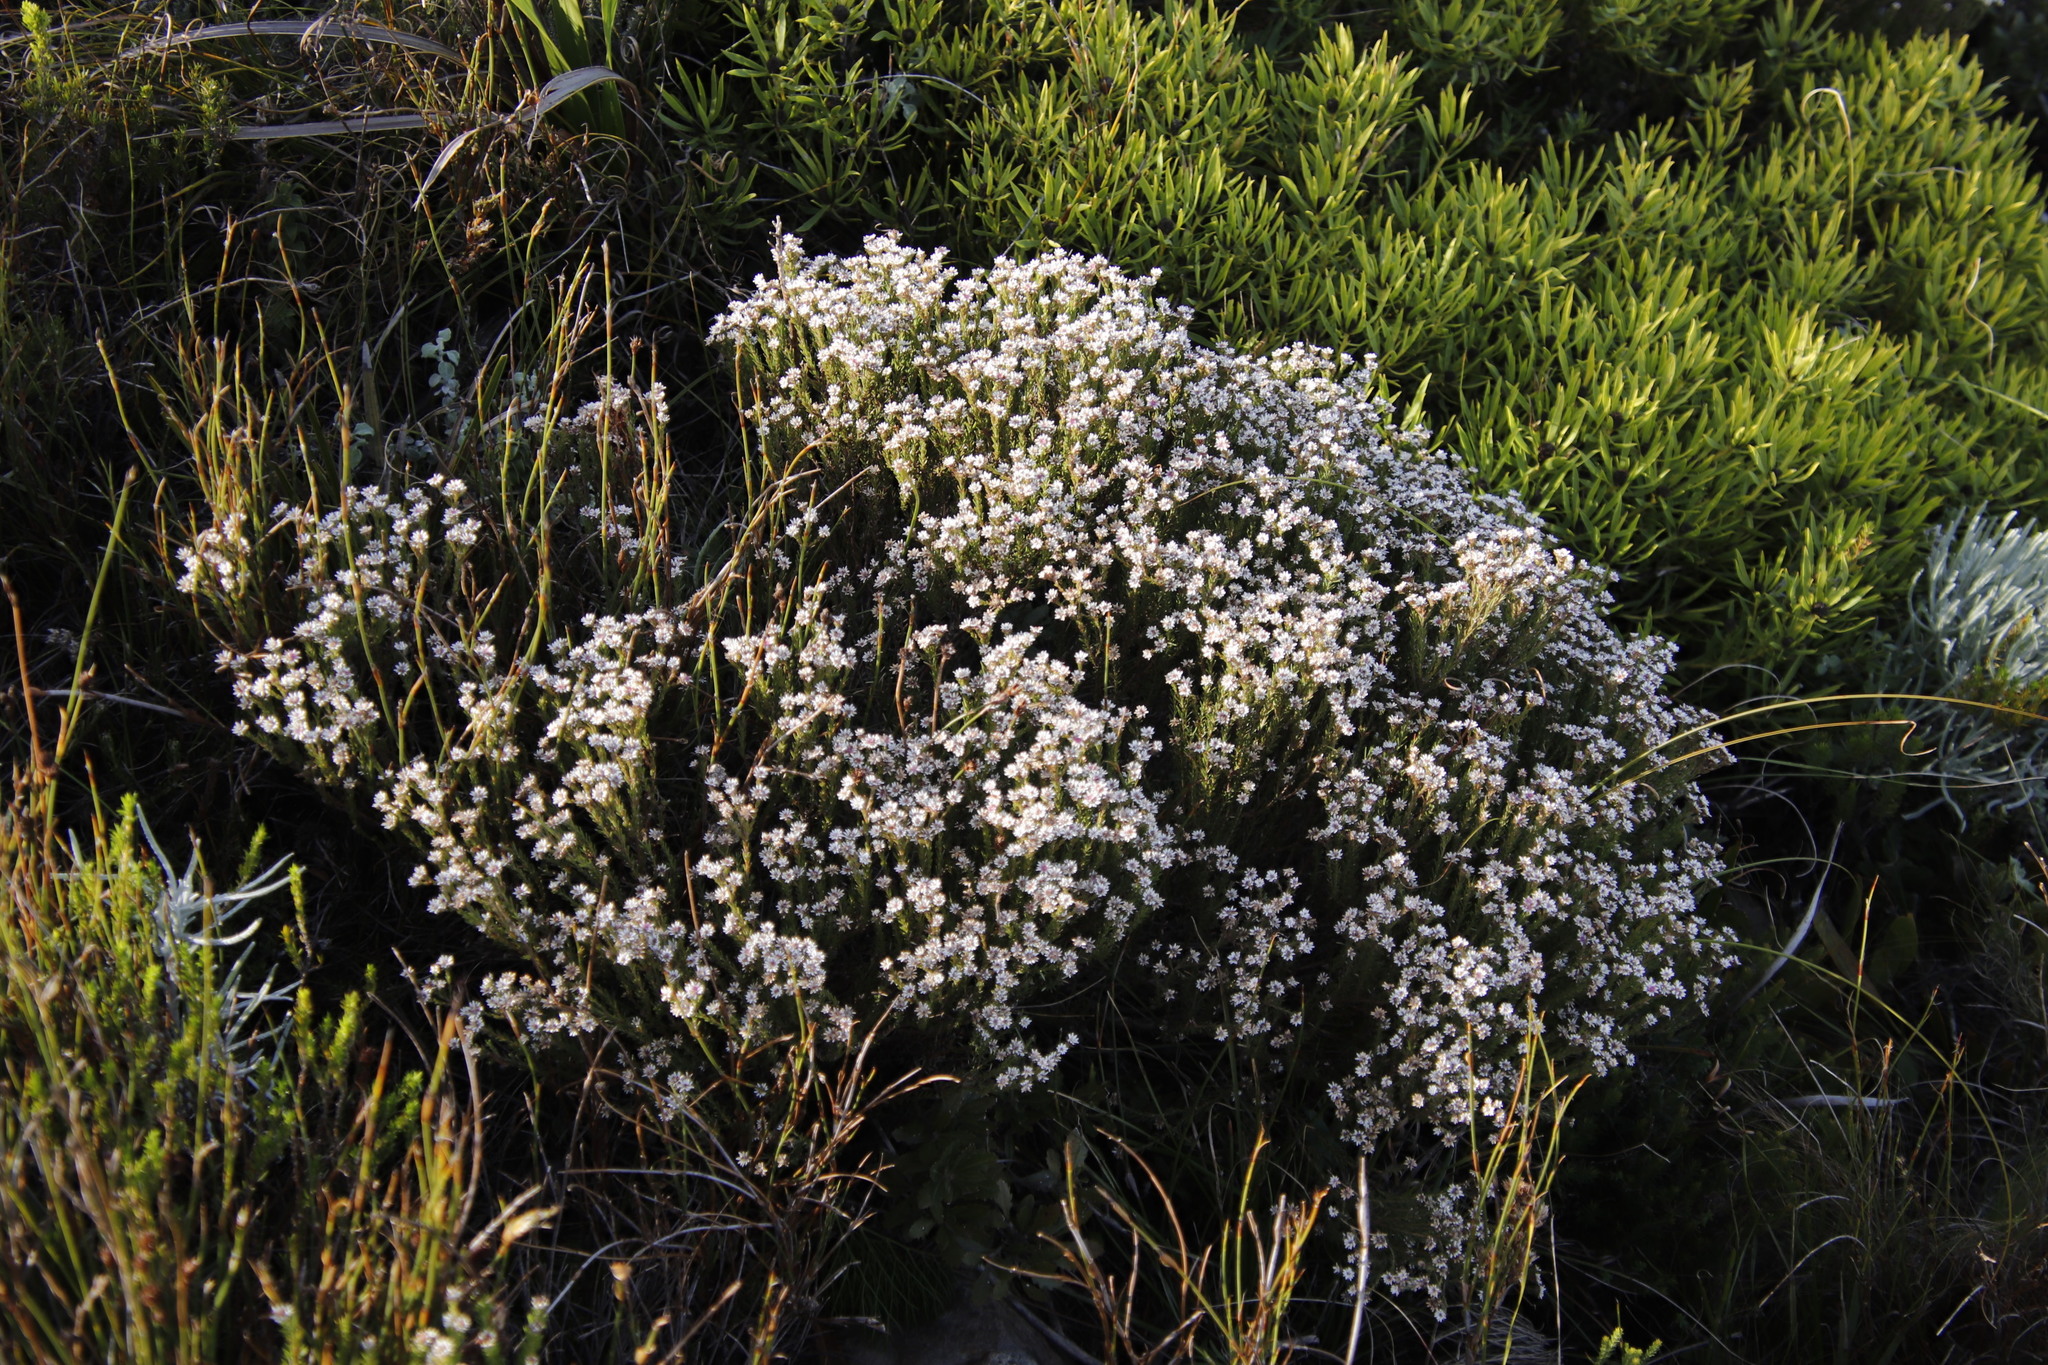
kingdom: Plantae
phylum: Tracheophyta
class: Magnoliopsida
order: Bruniales
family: Bruniaceae
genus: Staavia
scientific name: Staavia radiata
